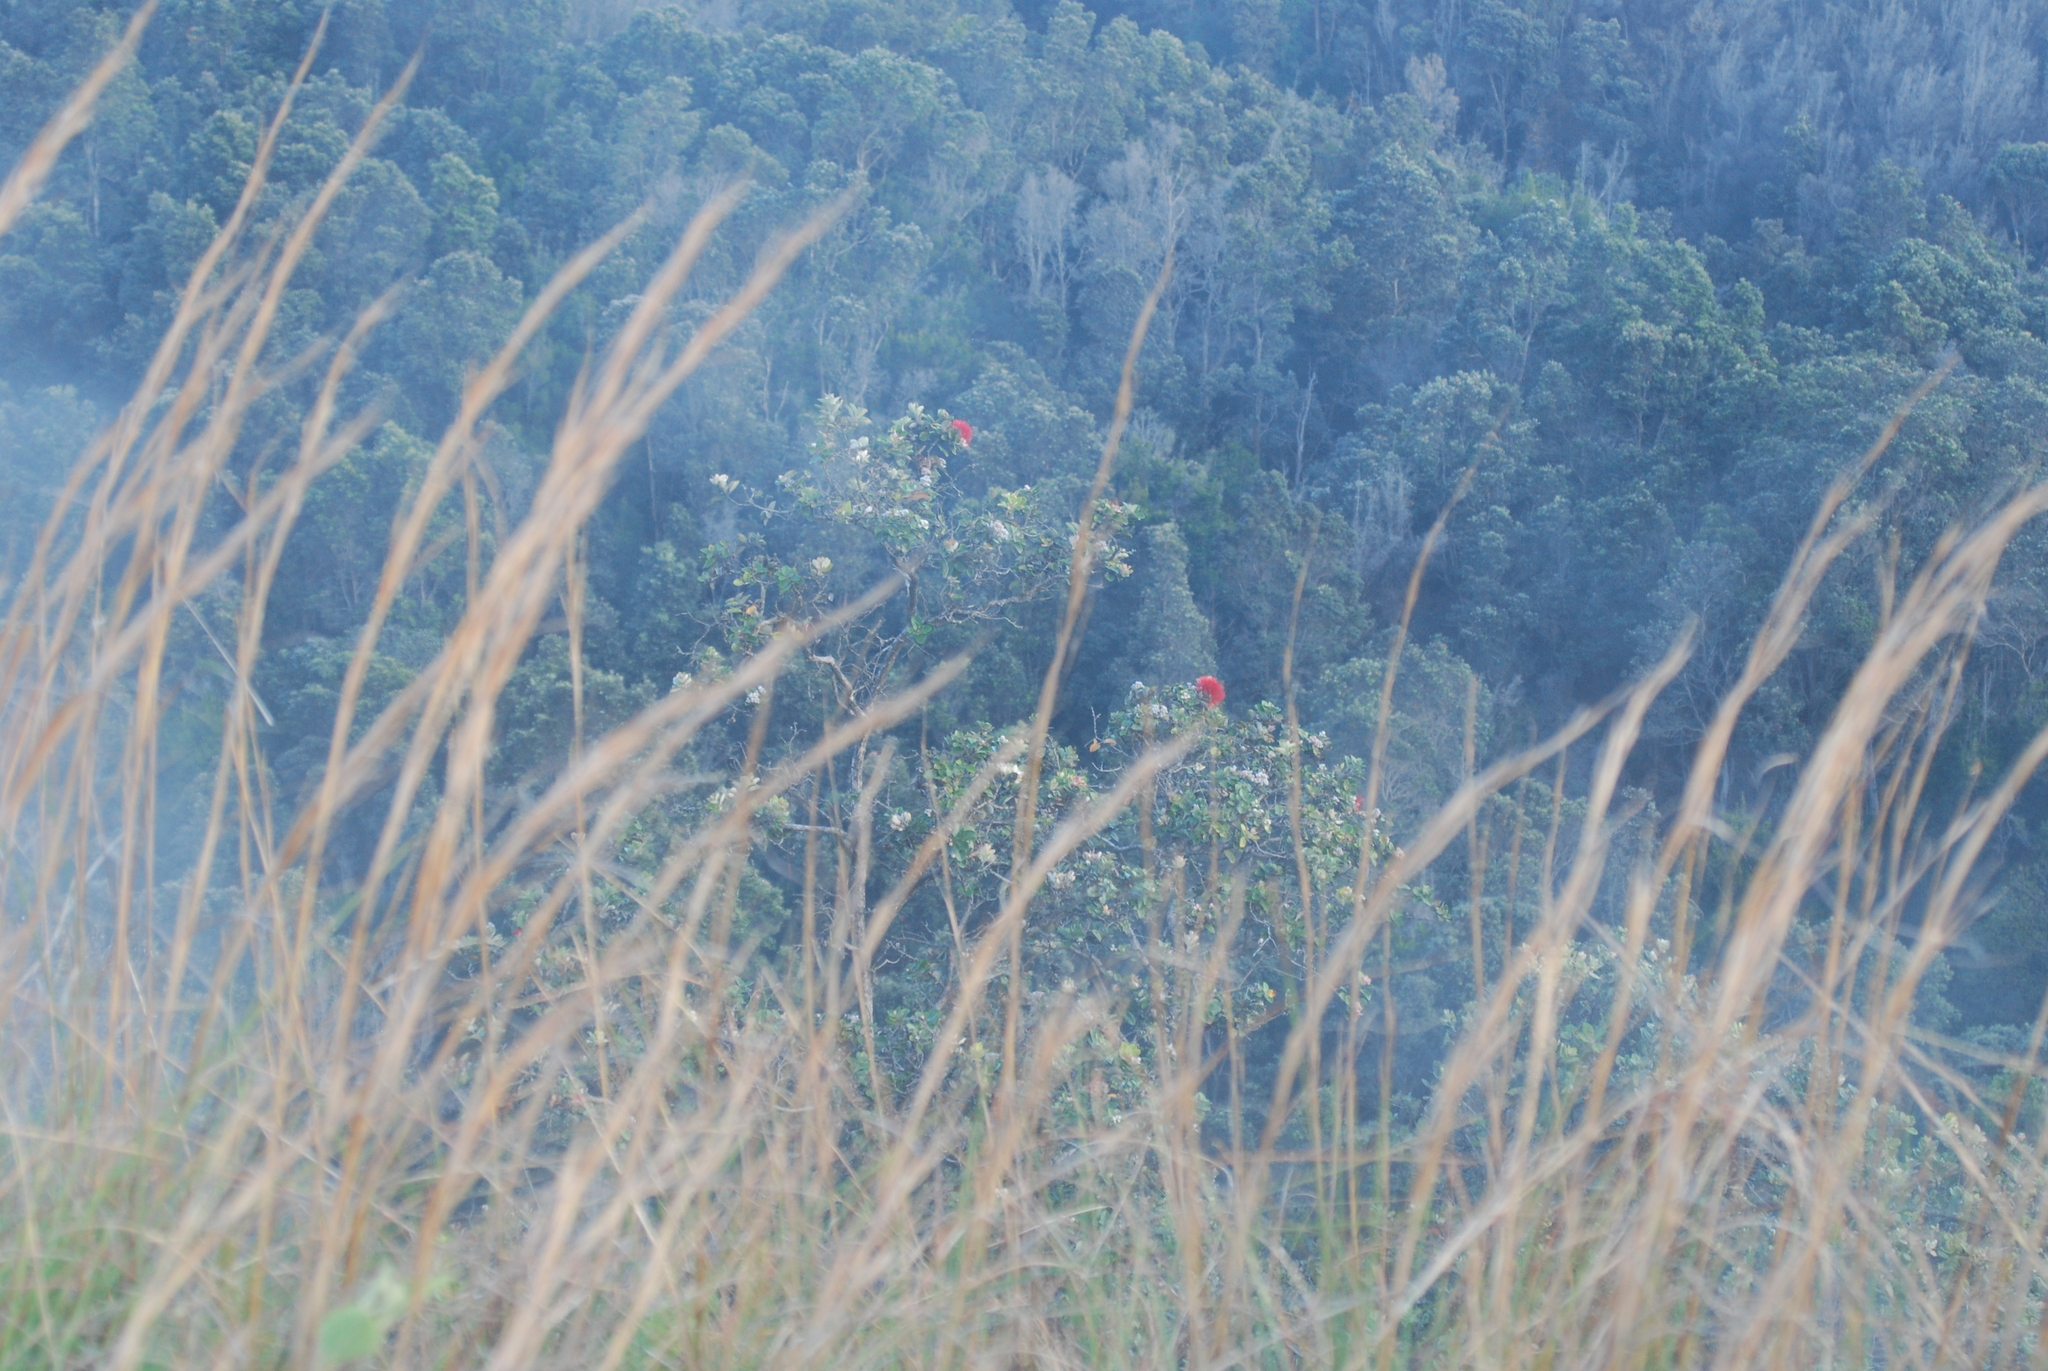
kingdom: Plantae
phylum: Tracheophyta
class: Magnoliopsida
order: Myrtales
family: Myrtaceae
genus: Metrosideros
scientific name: Metrosideros polymorpha
